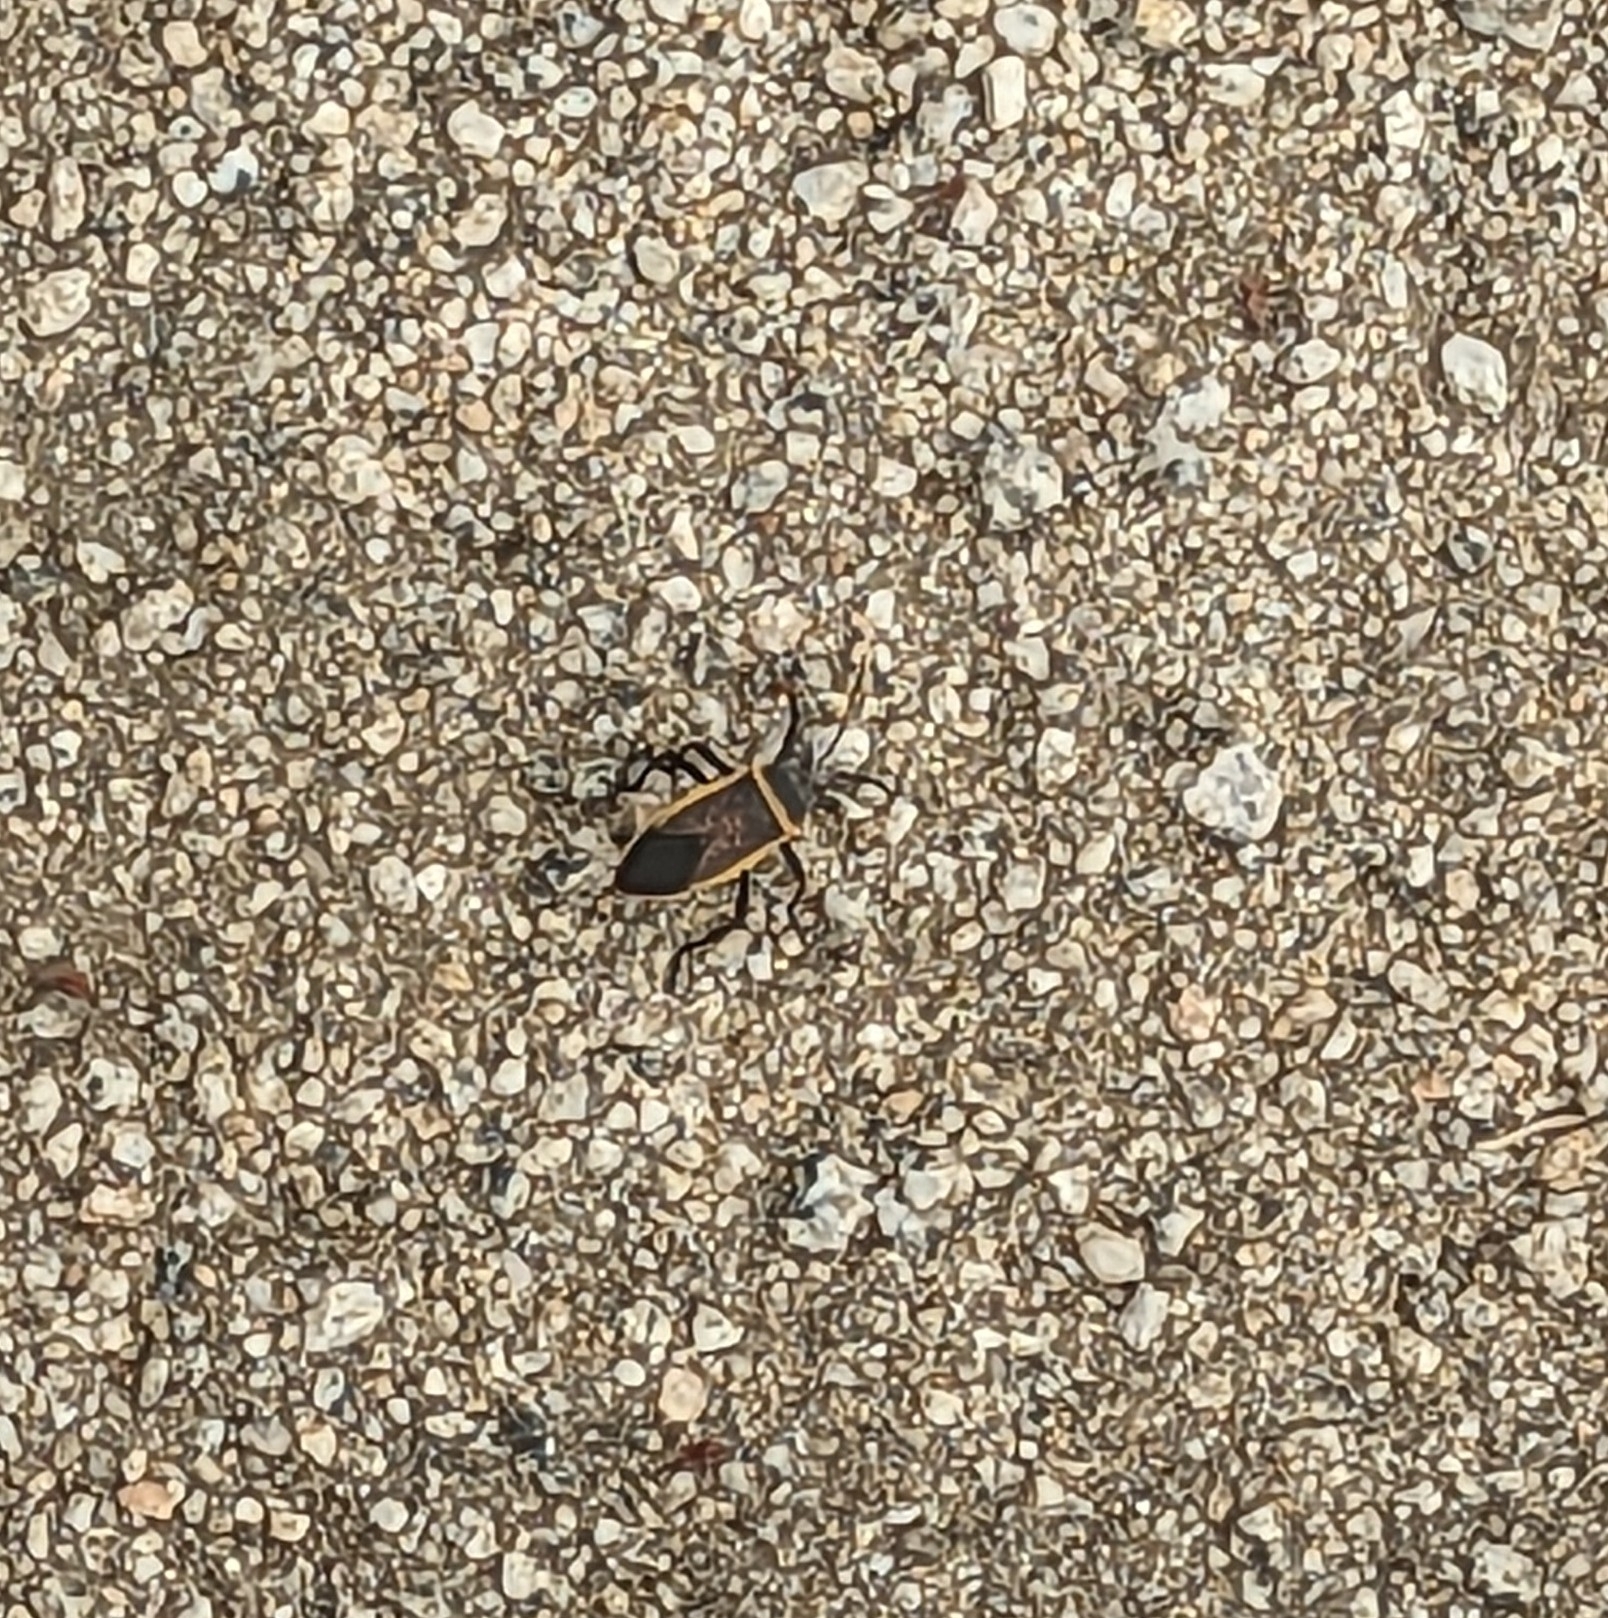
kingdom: Animalia
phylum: Arthropoda
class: Insecta
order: Hemiptera
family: Largidae
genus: Largus
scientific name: Largus californicus
